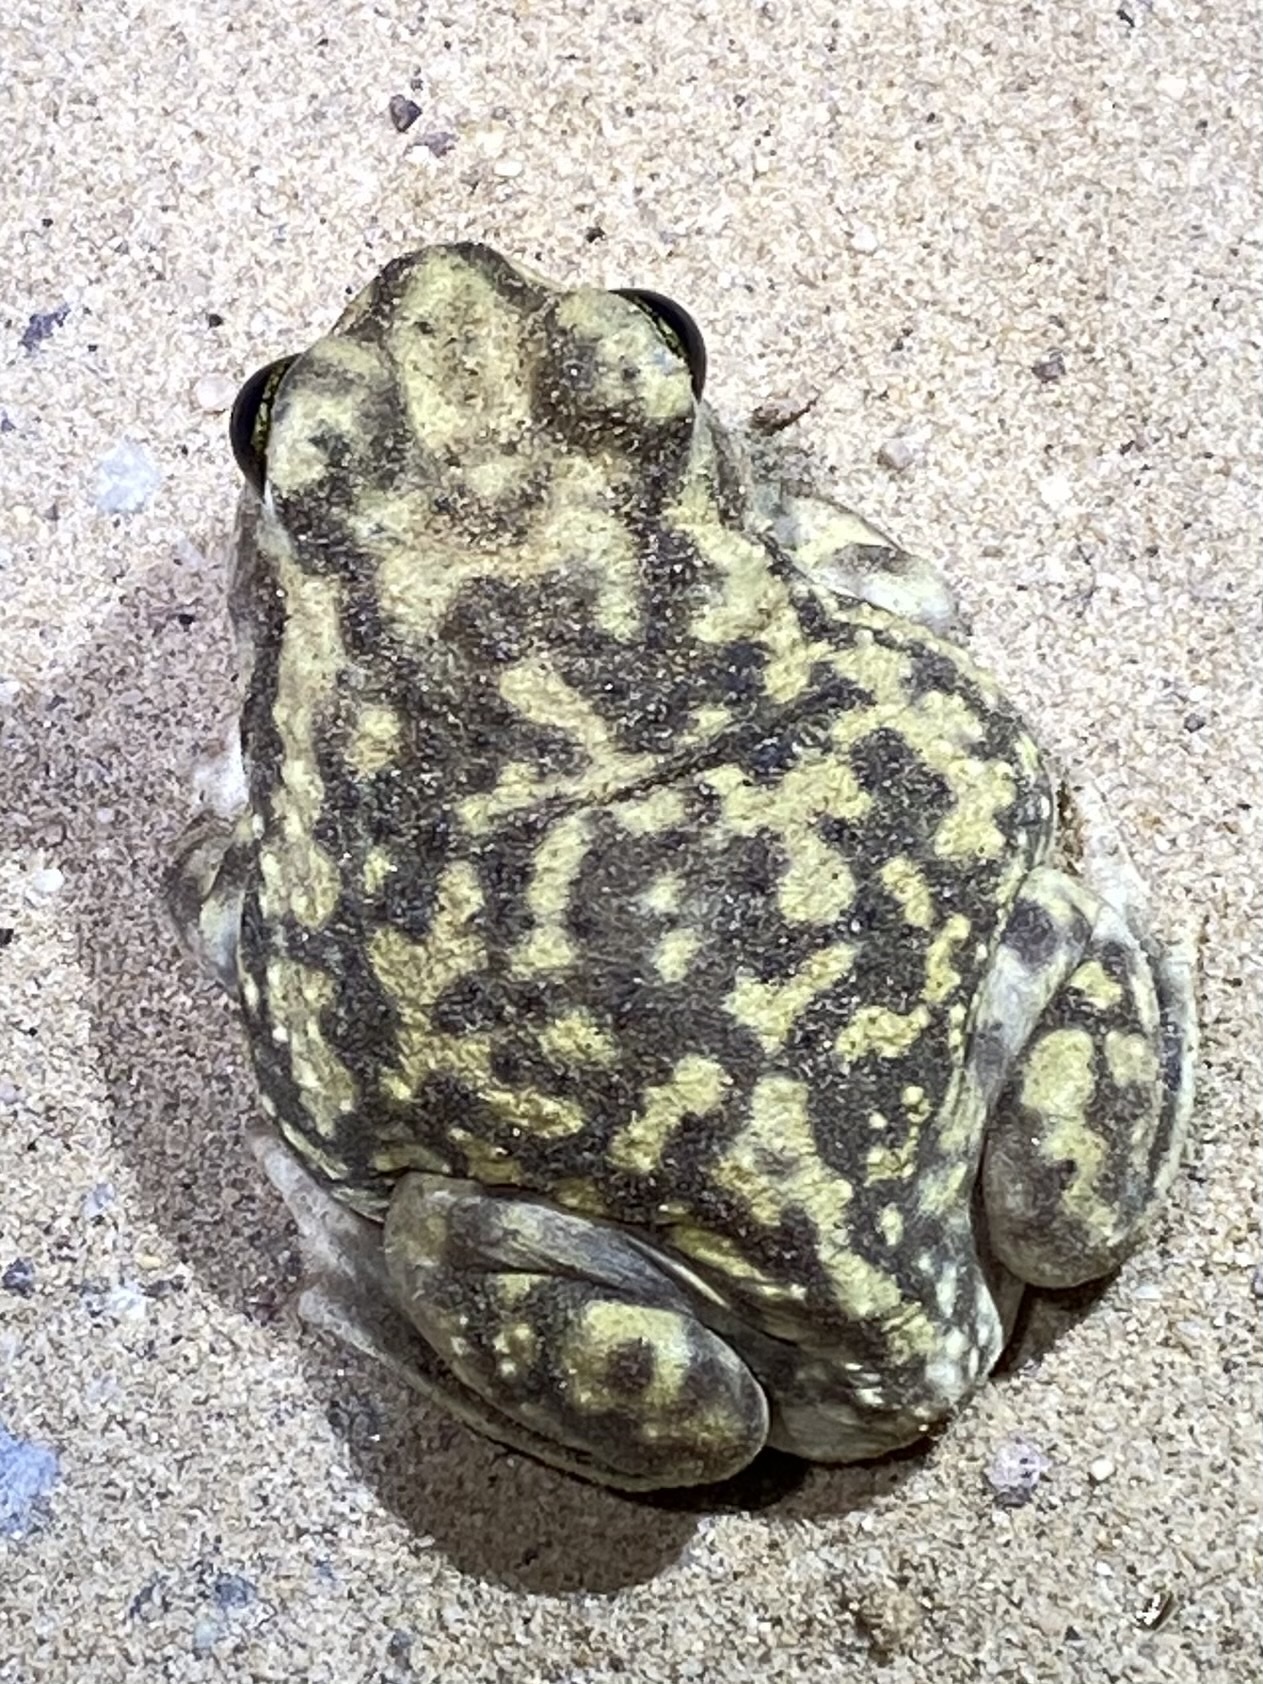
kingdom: Animalia
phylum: Chordata
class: Amphibia
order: Anura
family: Scaphiopodidae
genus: Scaphiopus
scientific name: Scaphiopus couchii
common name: Couch's spadefoot toad
